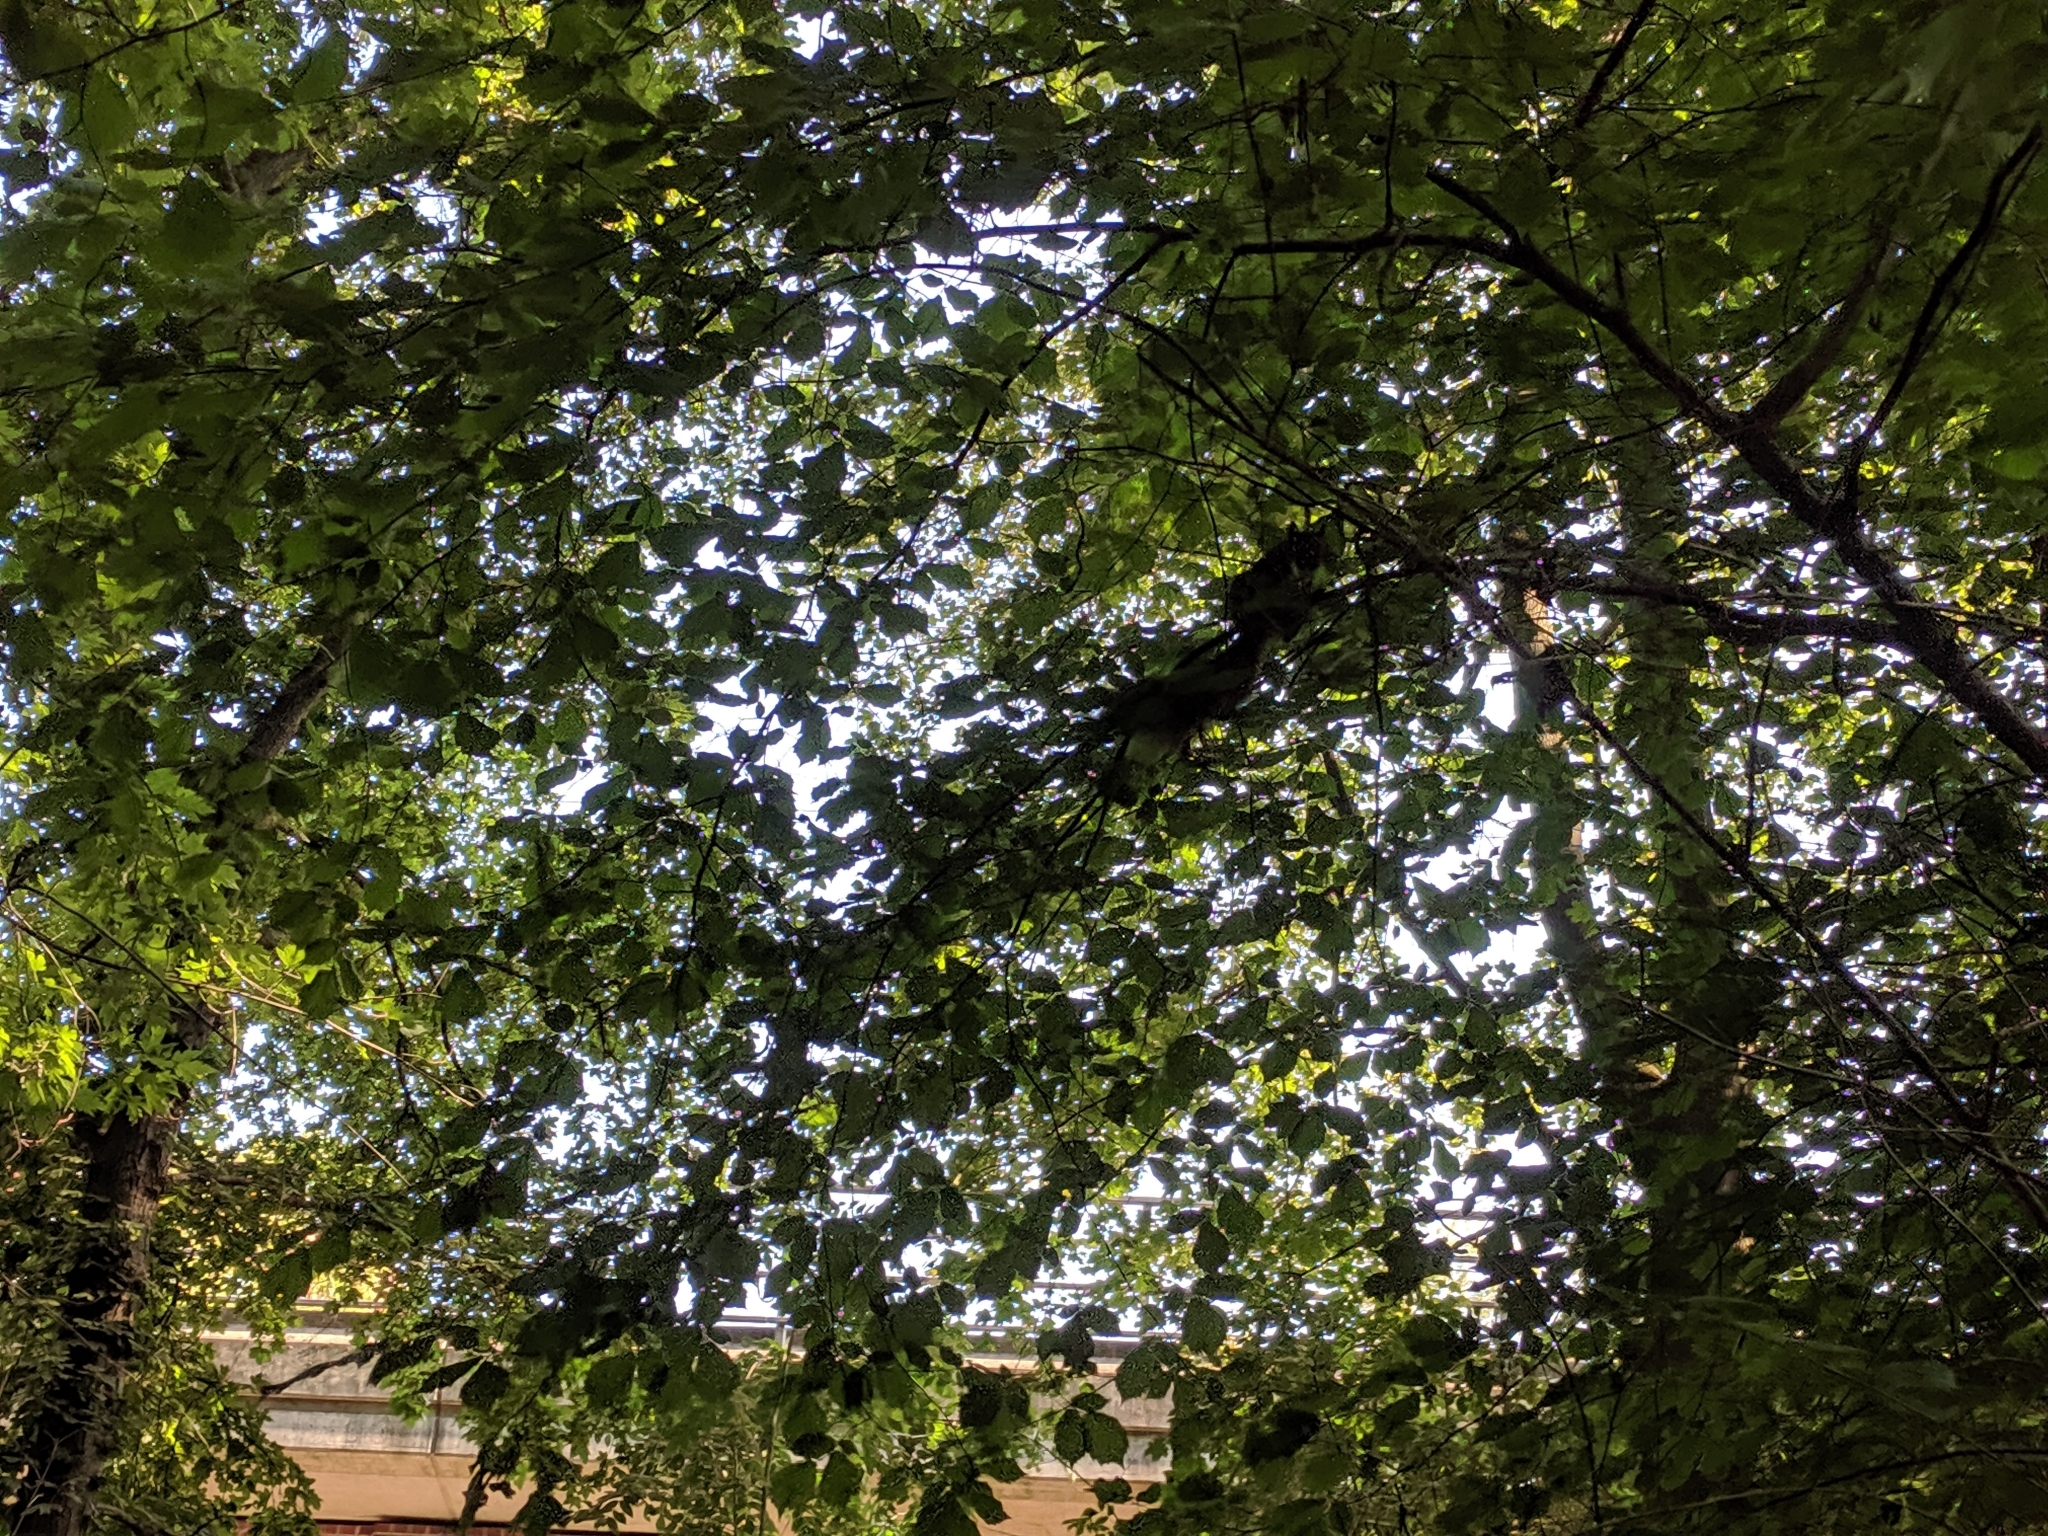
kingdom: Animalia
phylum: Chordata
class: Mammalia
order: Rodentia
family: Sciuridae
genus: Sciurus
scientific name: Sciurus vulgaris
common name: Eurasian red squirrel
